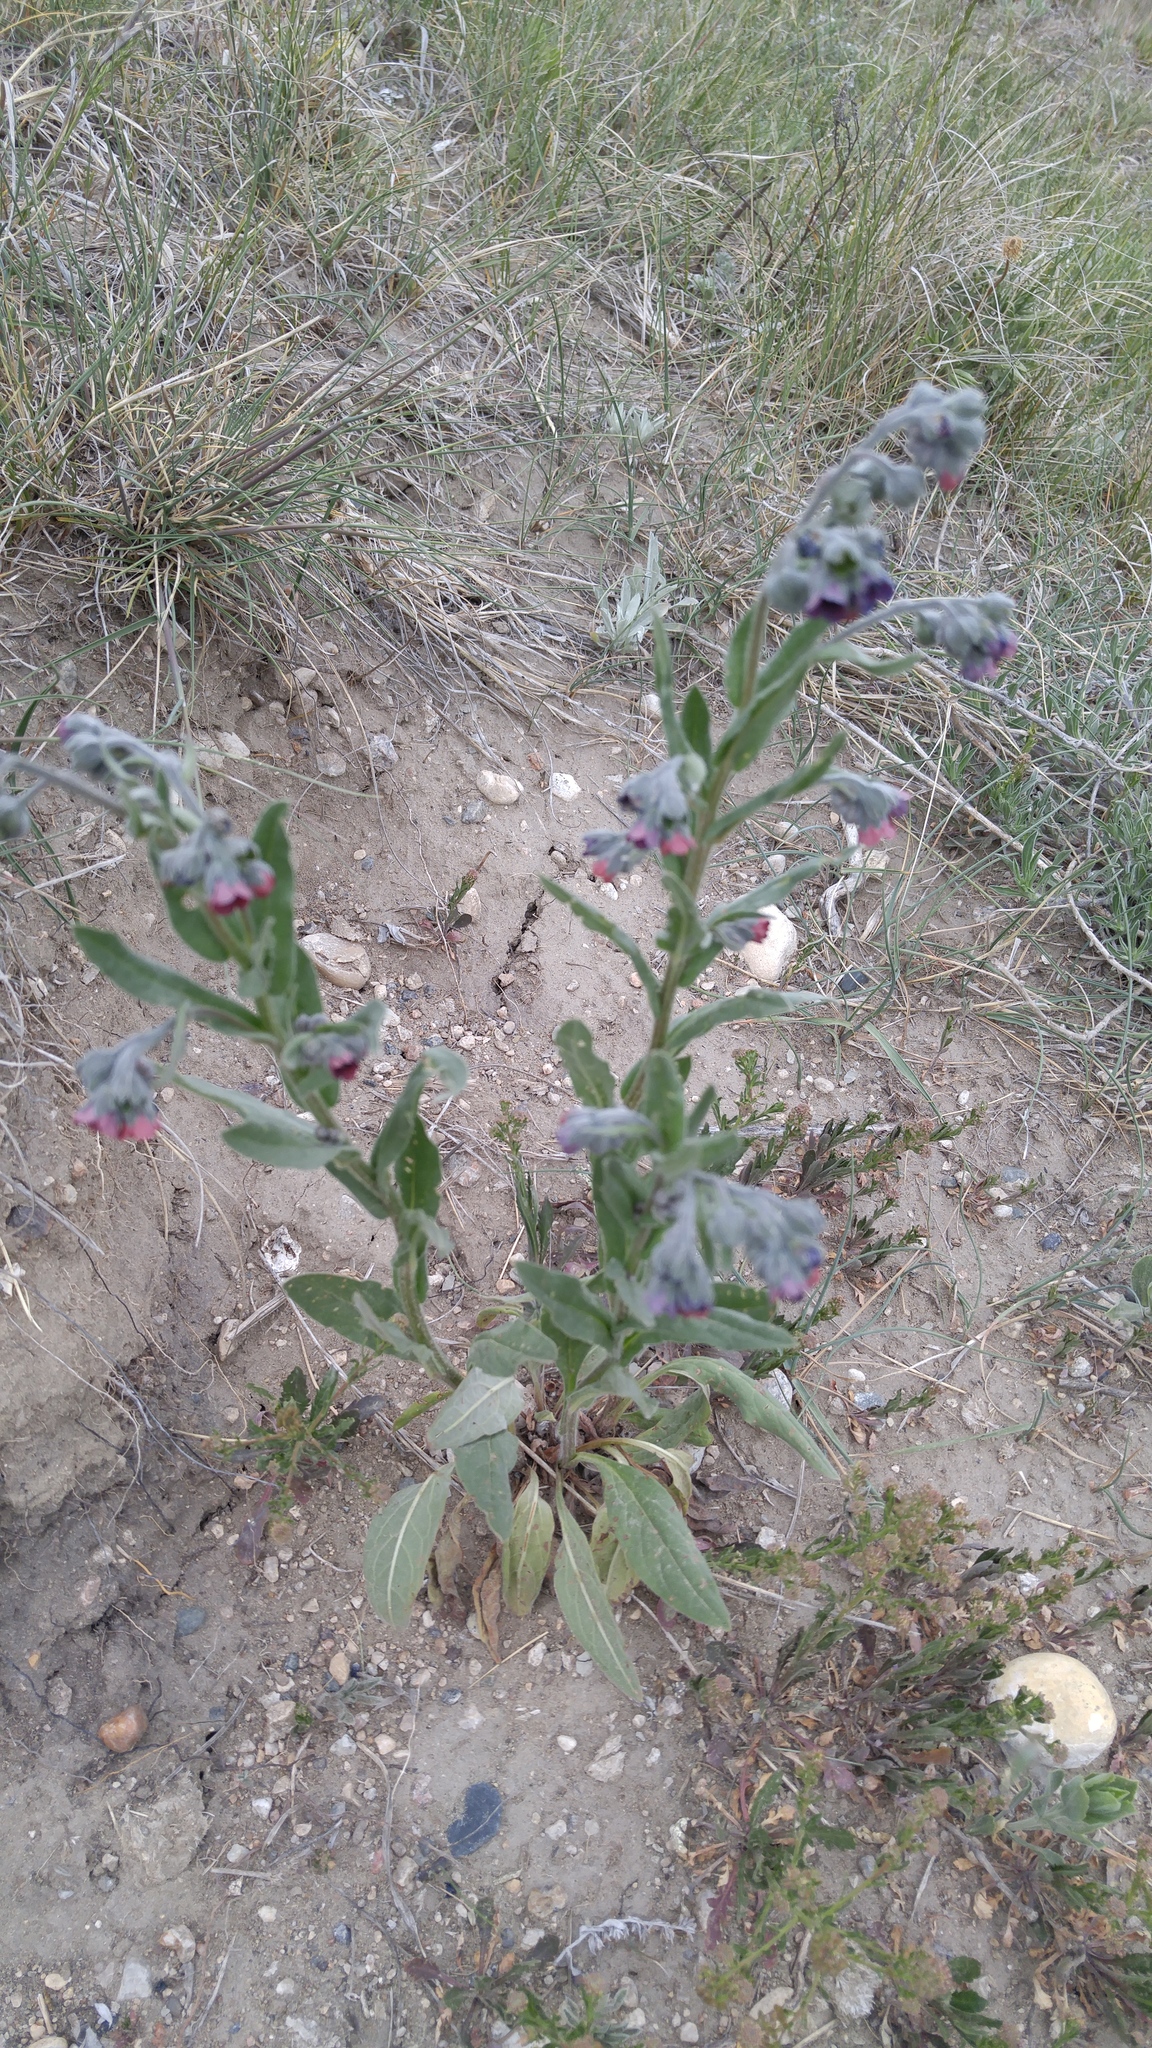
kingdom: Plantae
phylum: Tracheophyta
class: Magnoliopsida
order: Boraginales
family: Boraginaceae
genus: Cynoglossum
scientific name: Cynoglossum officinale
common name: Hound's-tongue
